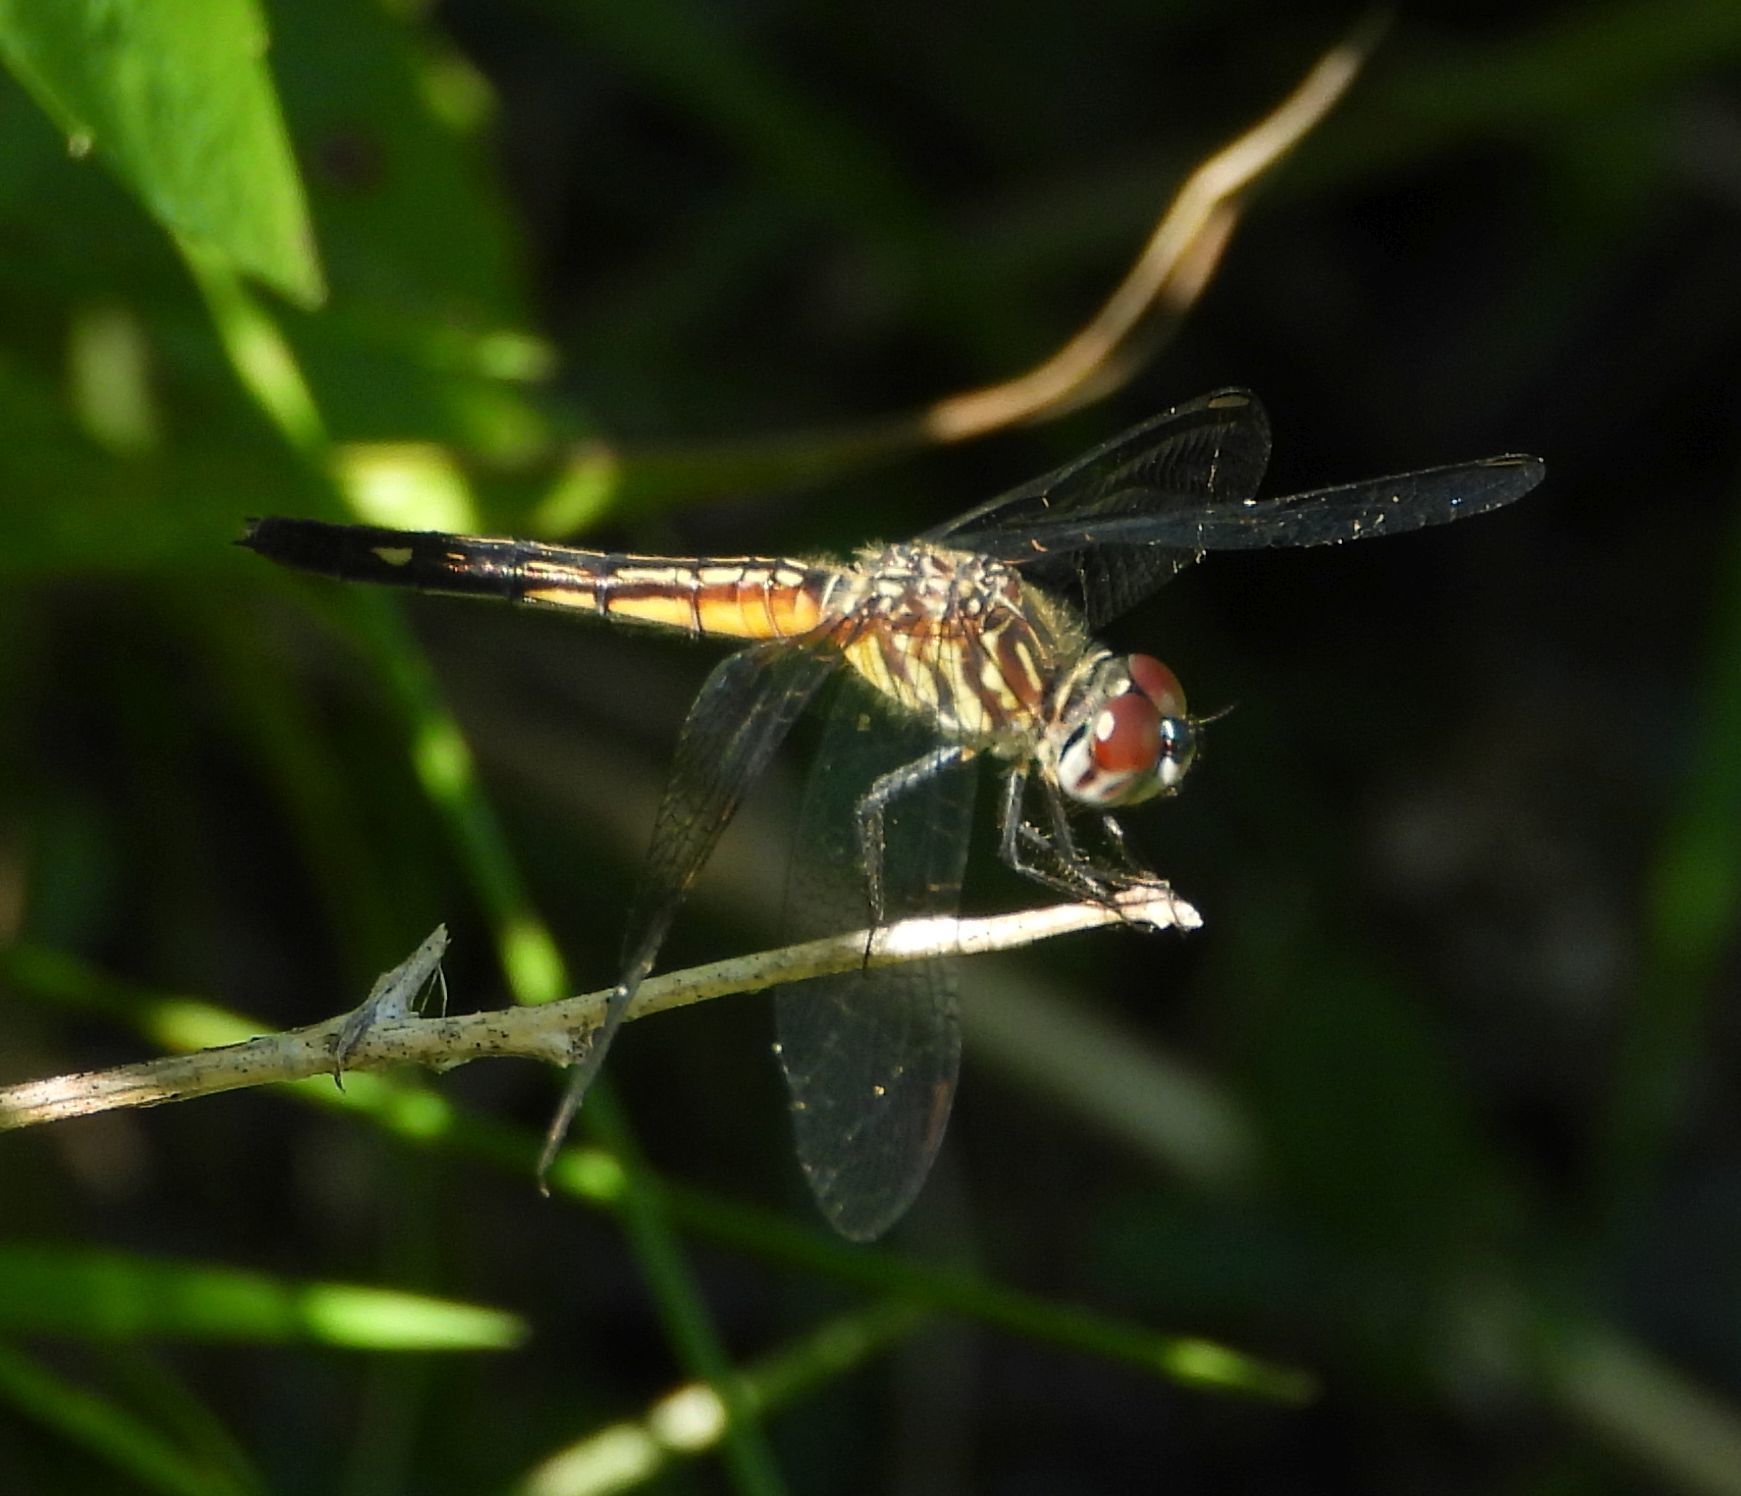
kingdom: Animalia
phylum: Arthropoda
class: Insecta
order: Odonata
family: Libellulidae
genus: Pachydiplax
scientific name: Pachydiplax longipennis
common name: Blue dasher
